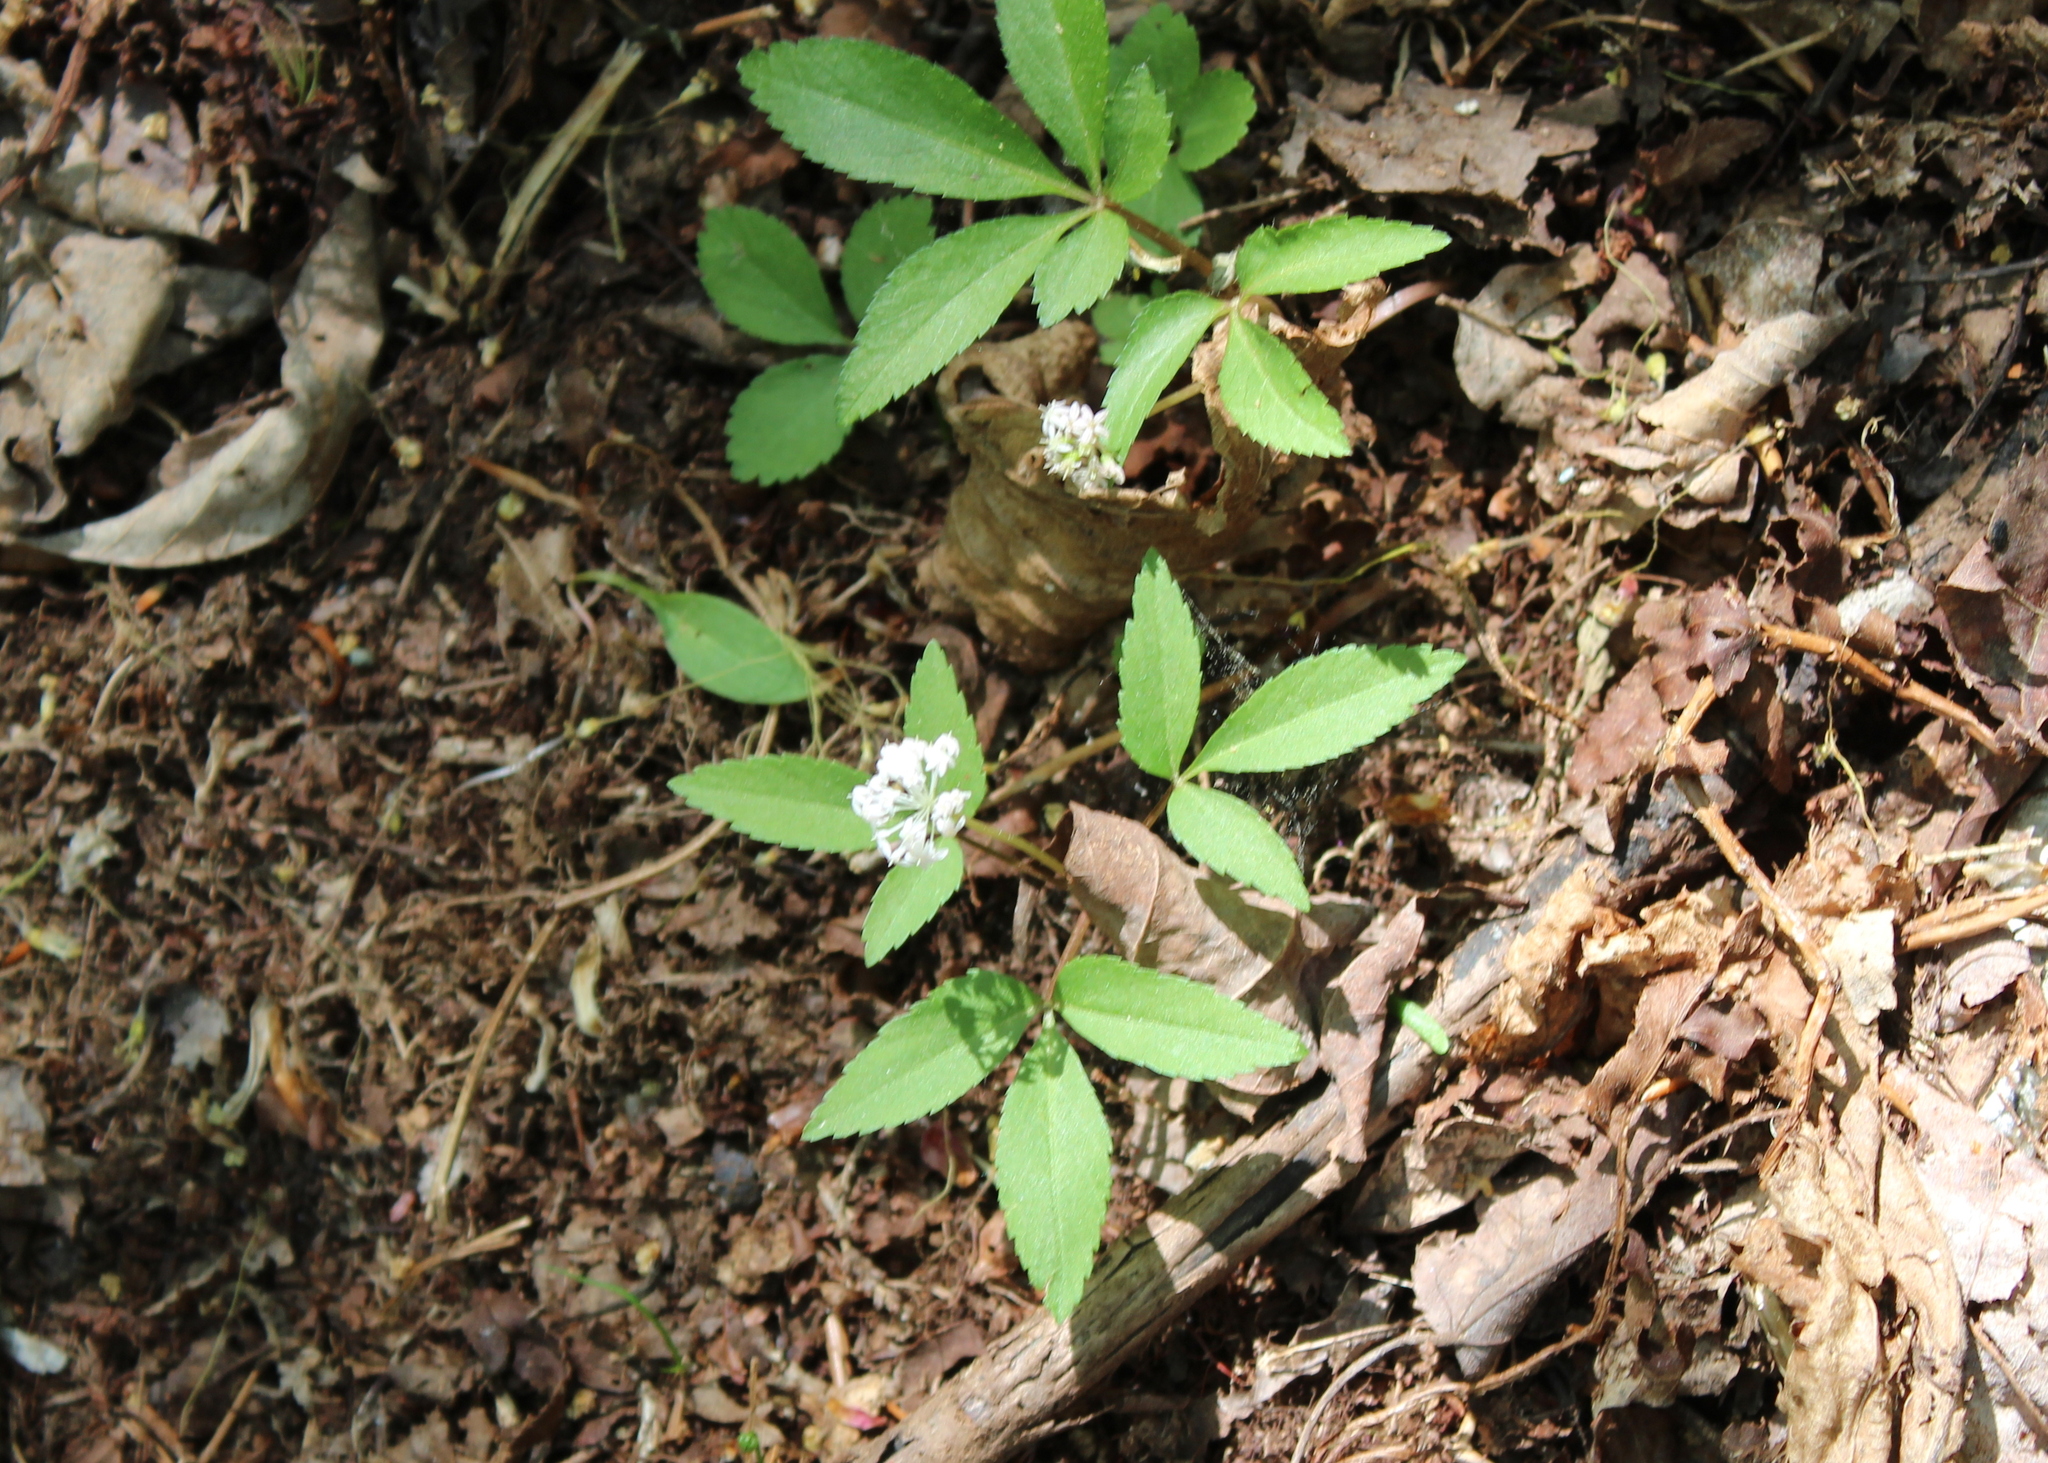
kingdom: Plantae
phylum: Tracheophyta
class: Magnoliopsida
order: Apiales
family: Araliaceae
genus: Panax
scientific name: Panax trifolius
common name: Dwarf ginseng
